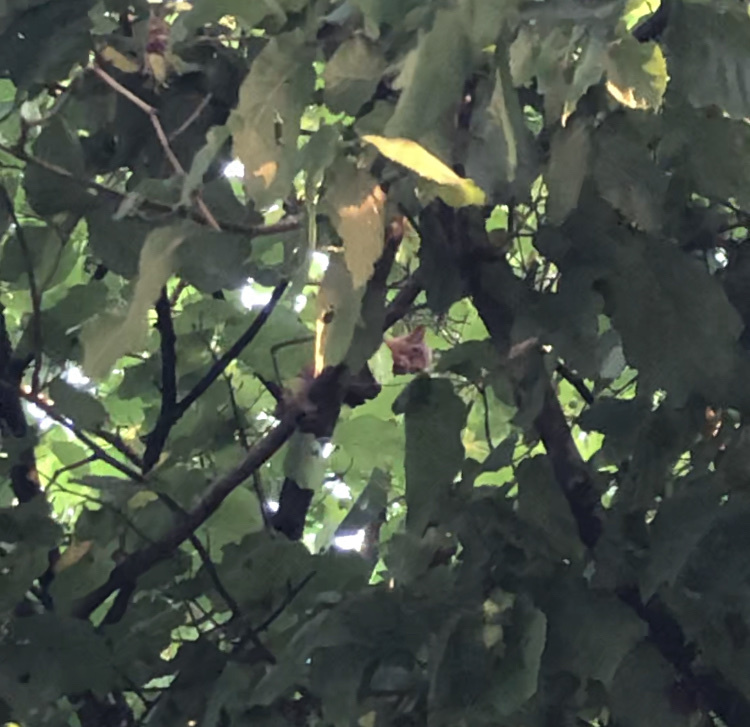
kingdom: Animalia
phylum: Chordata
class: Mammalia
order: Rodentia
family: Sciuridae
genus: Sciurus
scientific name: Sciurus vulgaris
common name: Eurasian red squirrel
